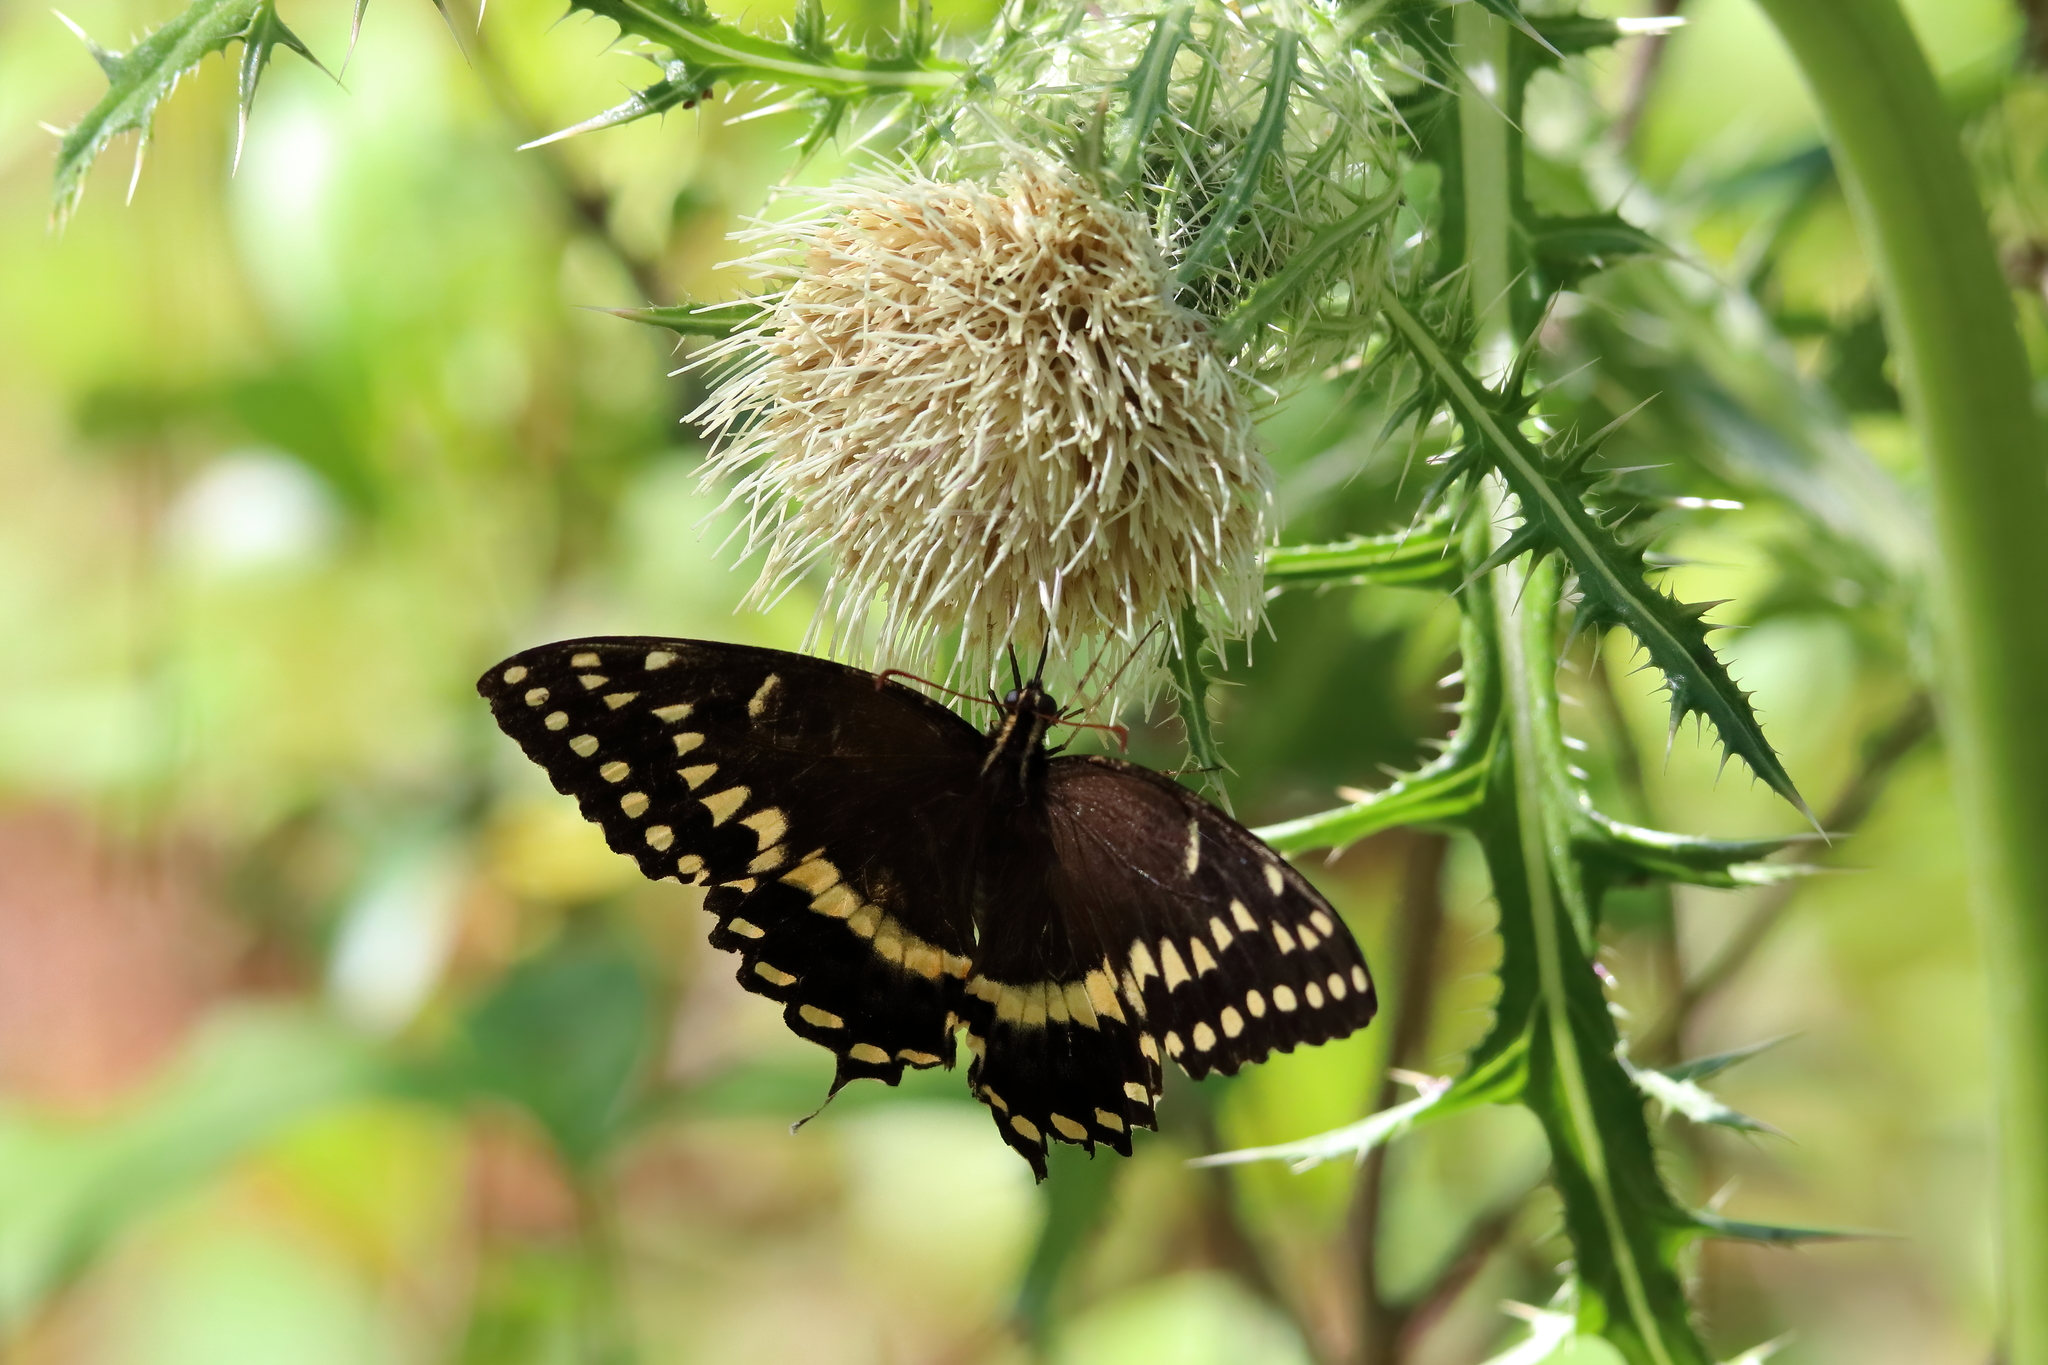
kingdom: Animalia
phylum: Arthropoda
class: Insecta
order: Lepidoptera
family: Papilionidae
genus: Papilio
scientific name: Papilio palamedes
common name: Palamedes swallowtail
